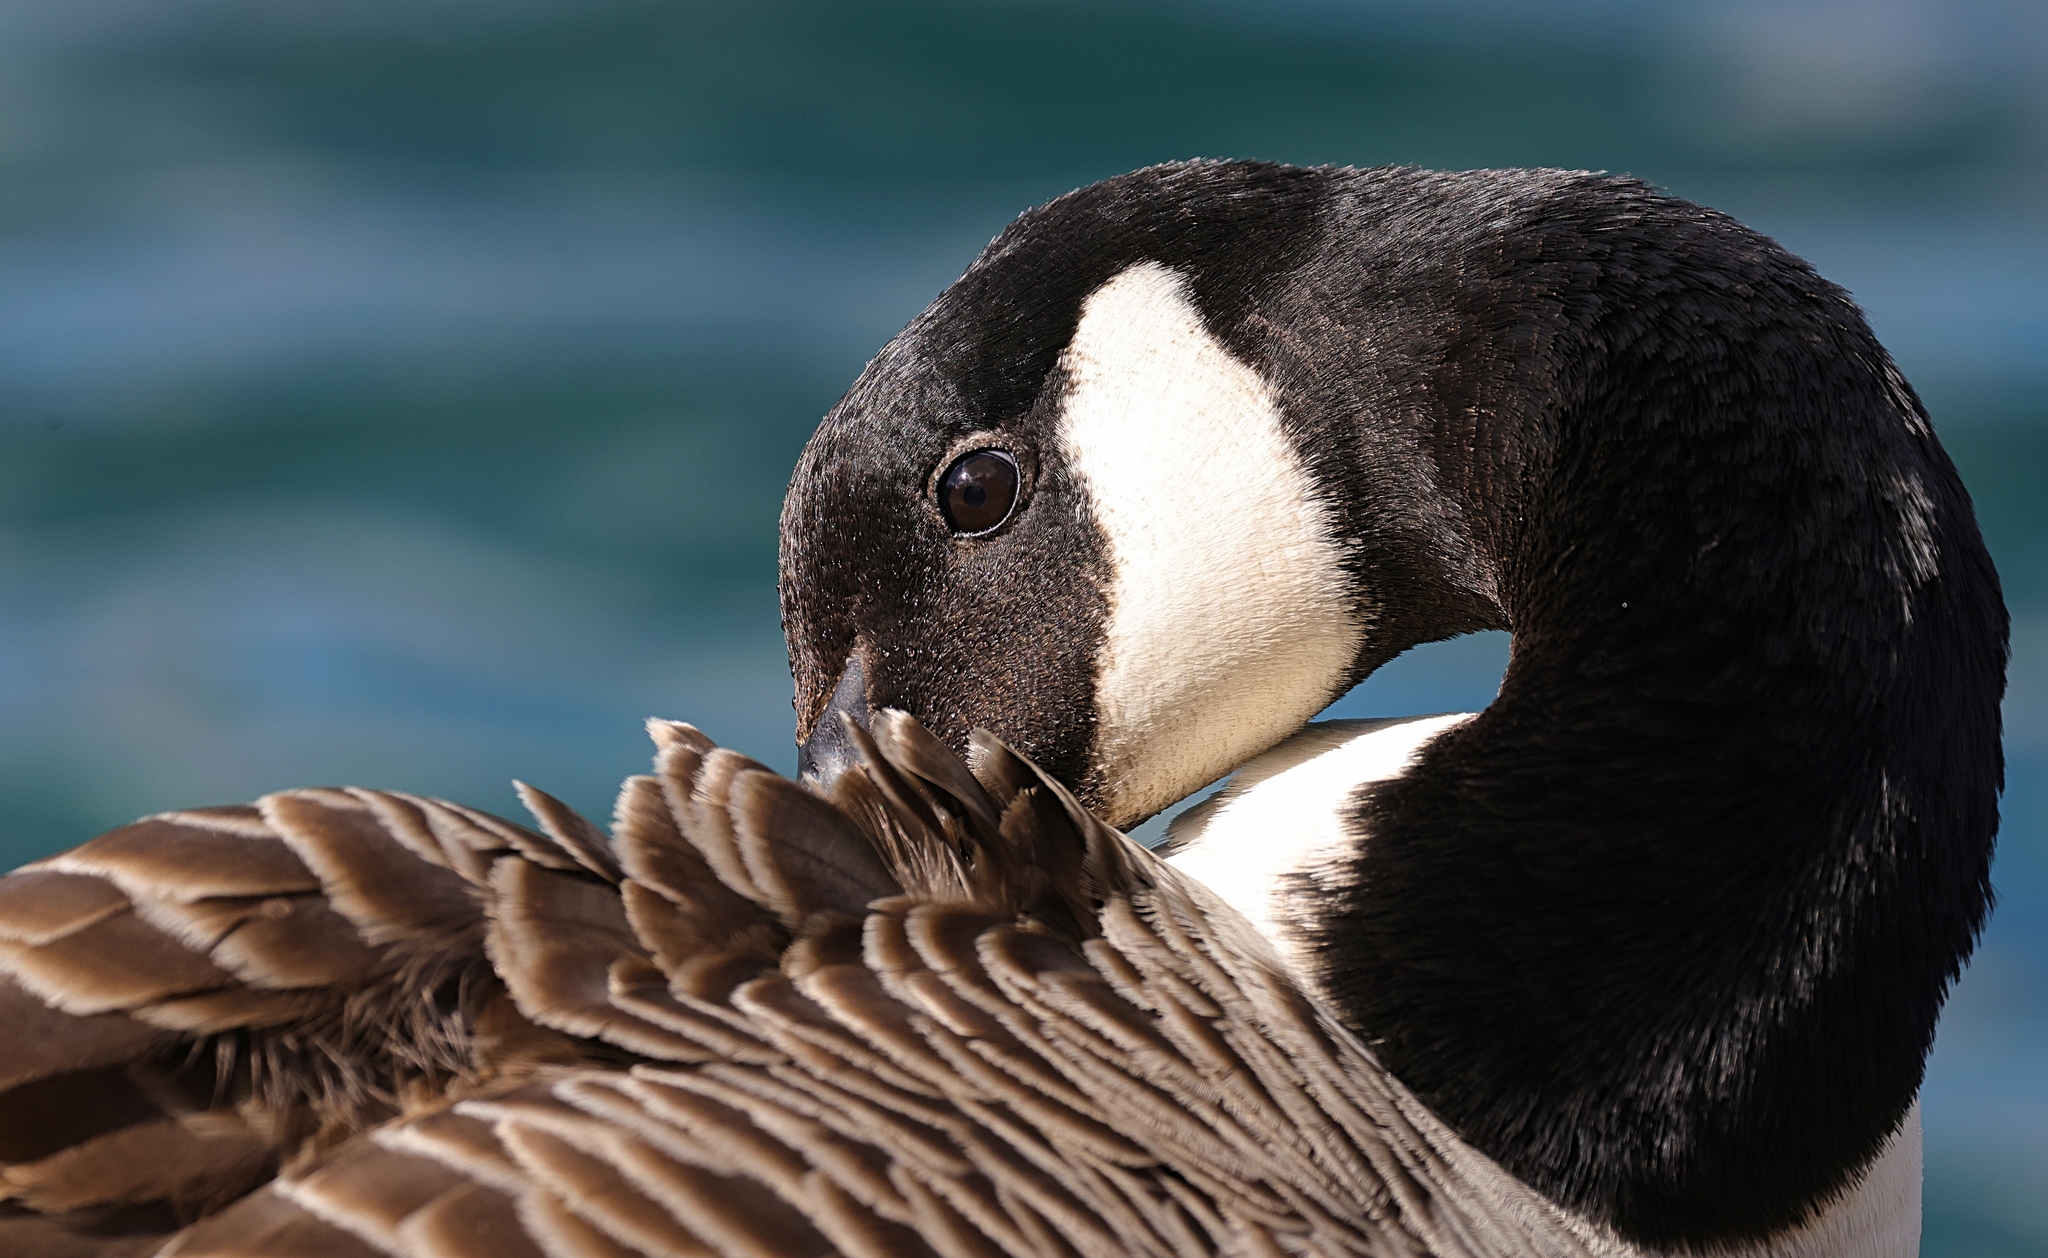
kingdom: Animalia
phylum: Chordata
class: Aves
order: Anseriformes
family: Anatidae
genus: Branta
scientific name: Branta canadensis
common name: Canada goose
